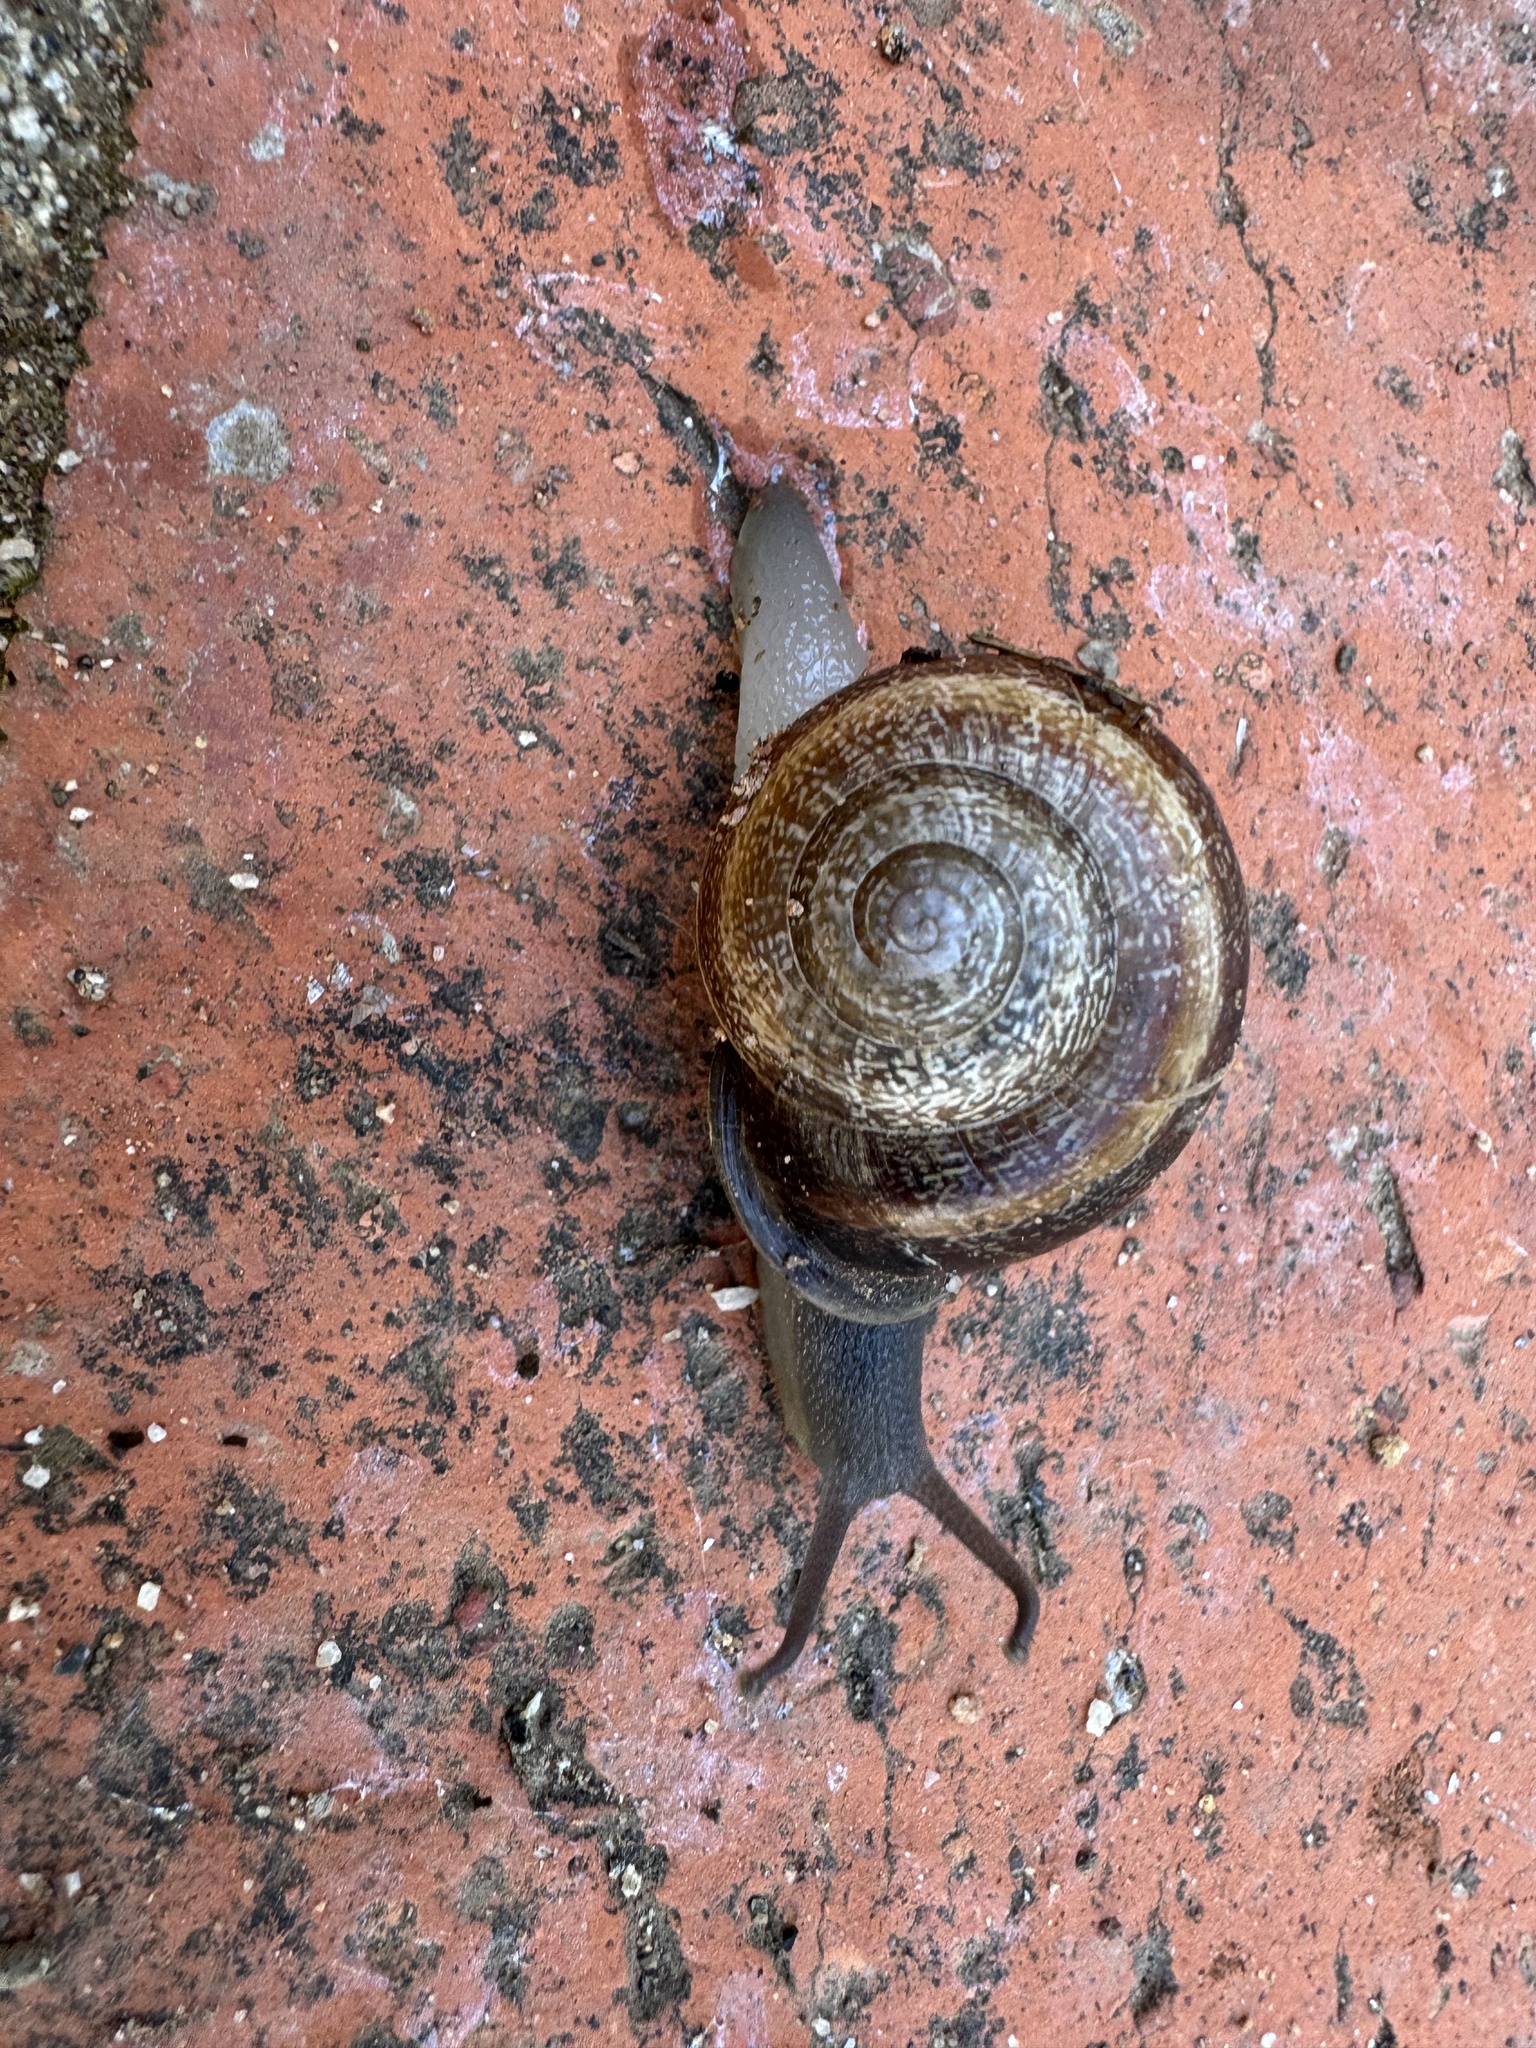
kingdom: Animalia
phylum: Mollusca
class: Gastropoda
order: Stylommatophora
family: Helicidae
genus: Otala
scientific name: Otala lactea
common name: Milk snail
